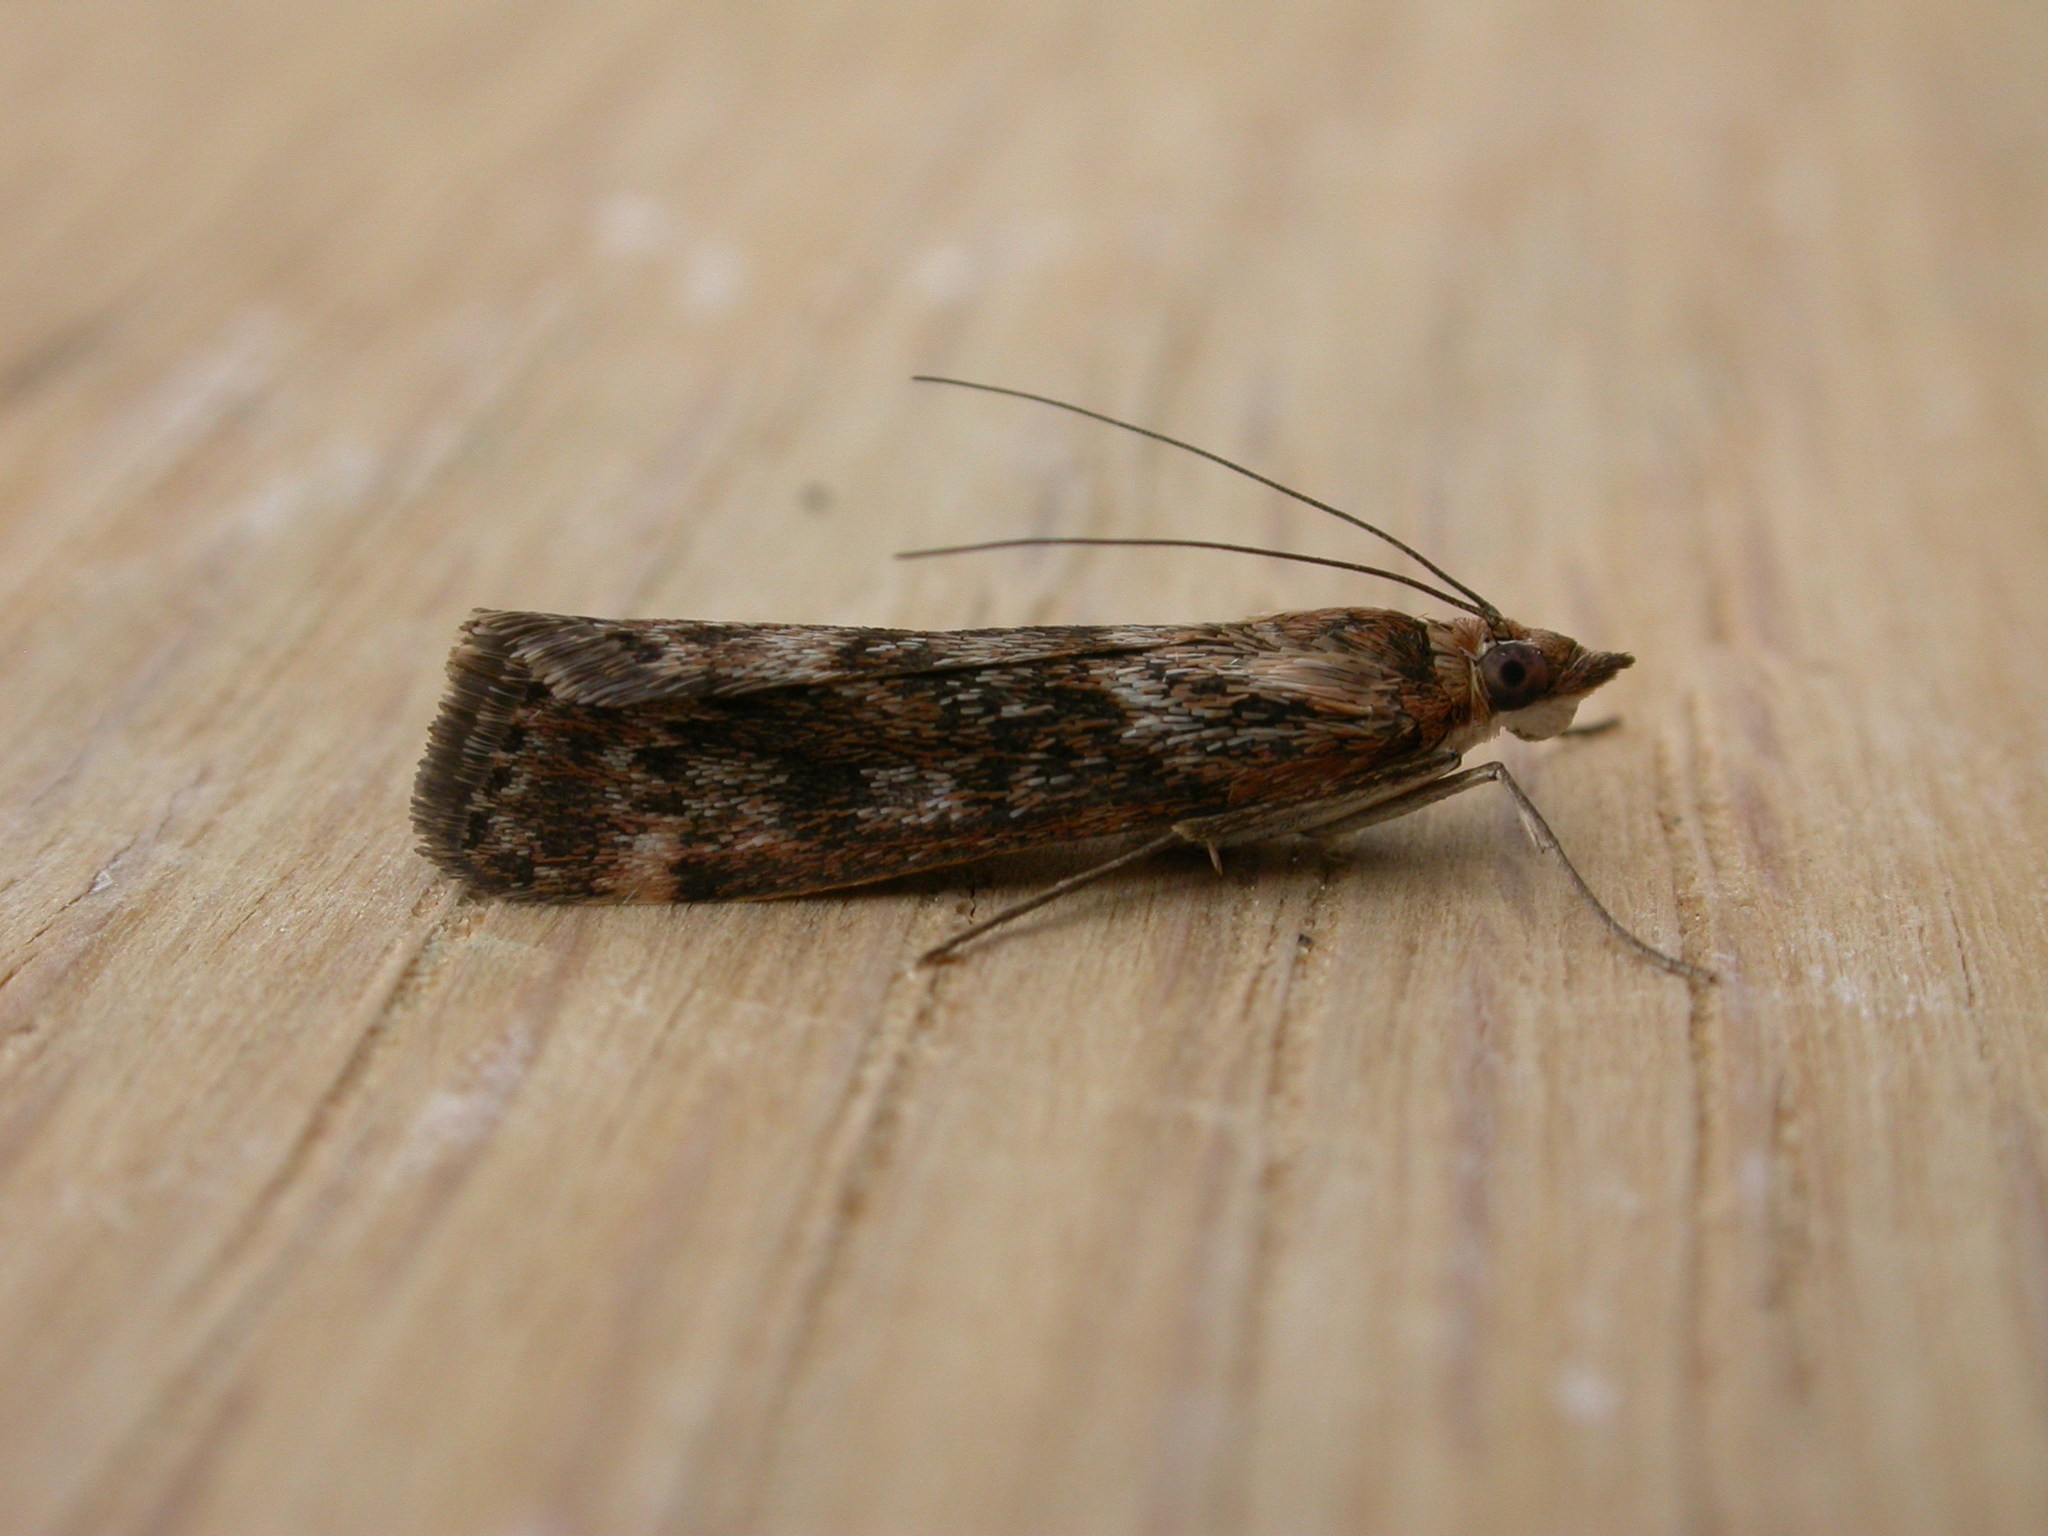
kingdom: Animalia
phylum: Arthropoda
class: Insecta
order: Lepidoptera
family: Crambidae
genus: Achyra
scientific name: Achyra affinitalis
